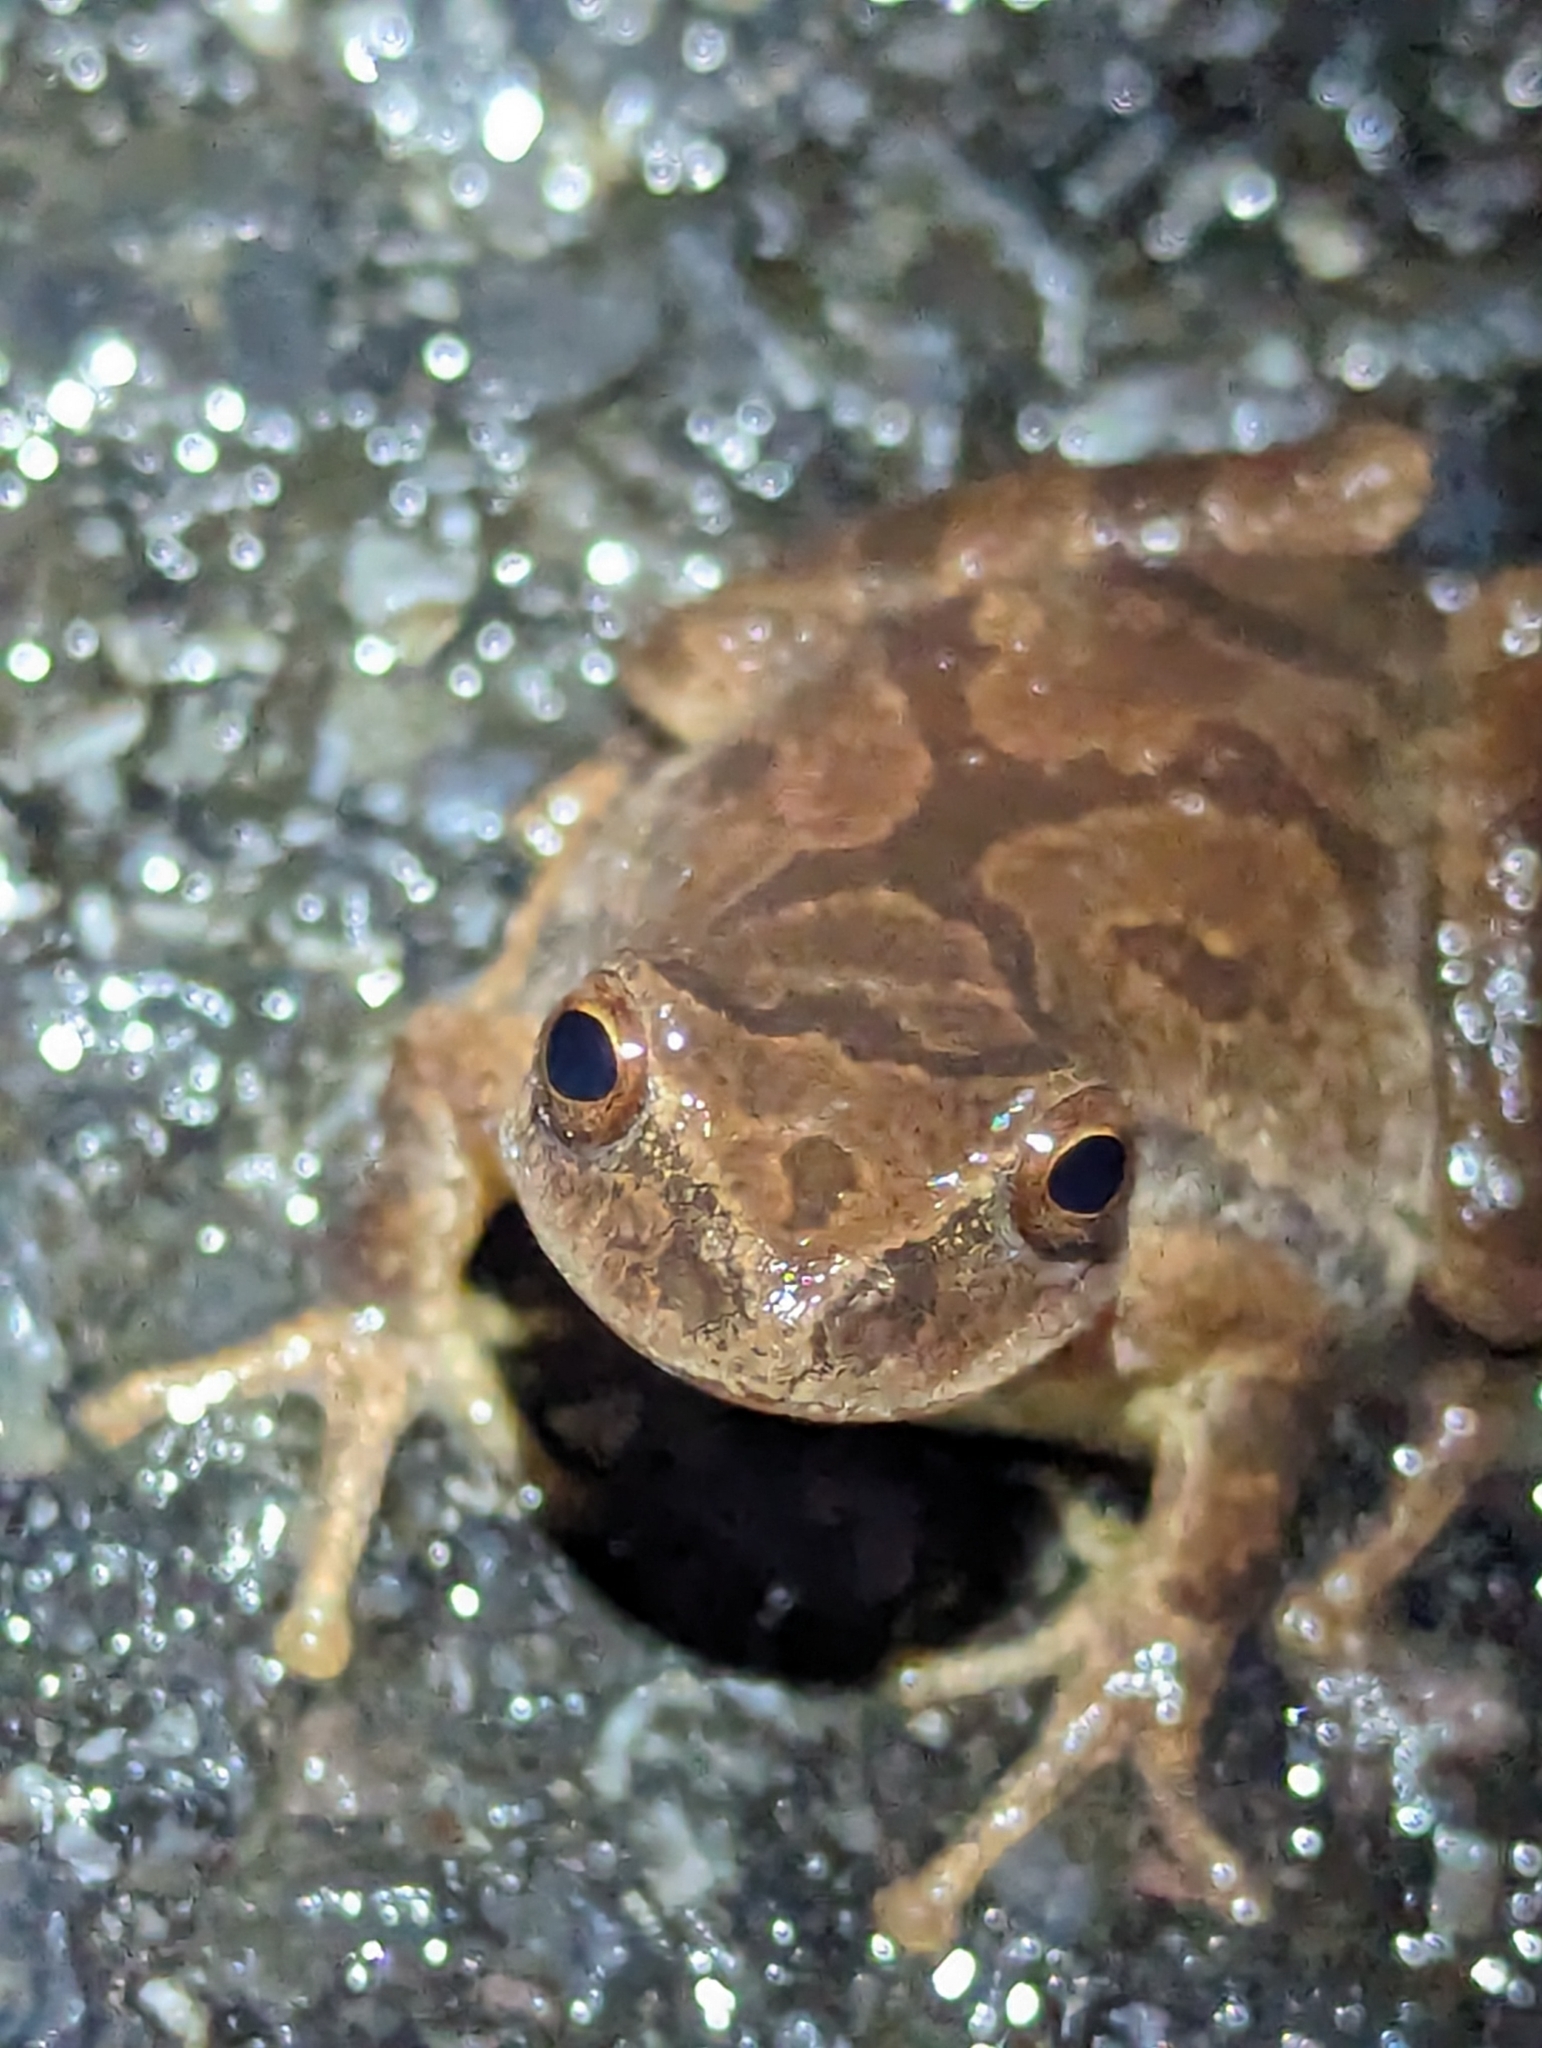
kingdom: Animalia
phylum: Chordata
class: Amphibia
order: Anura
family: Hylidae
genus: Pseudacris
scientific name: Pseudacris crucifer
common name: Spring peeper
